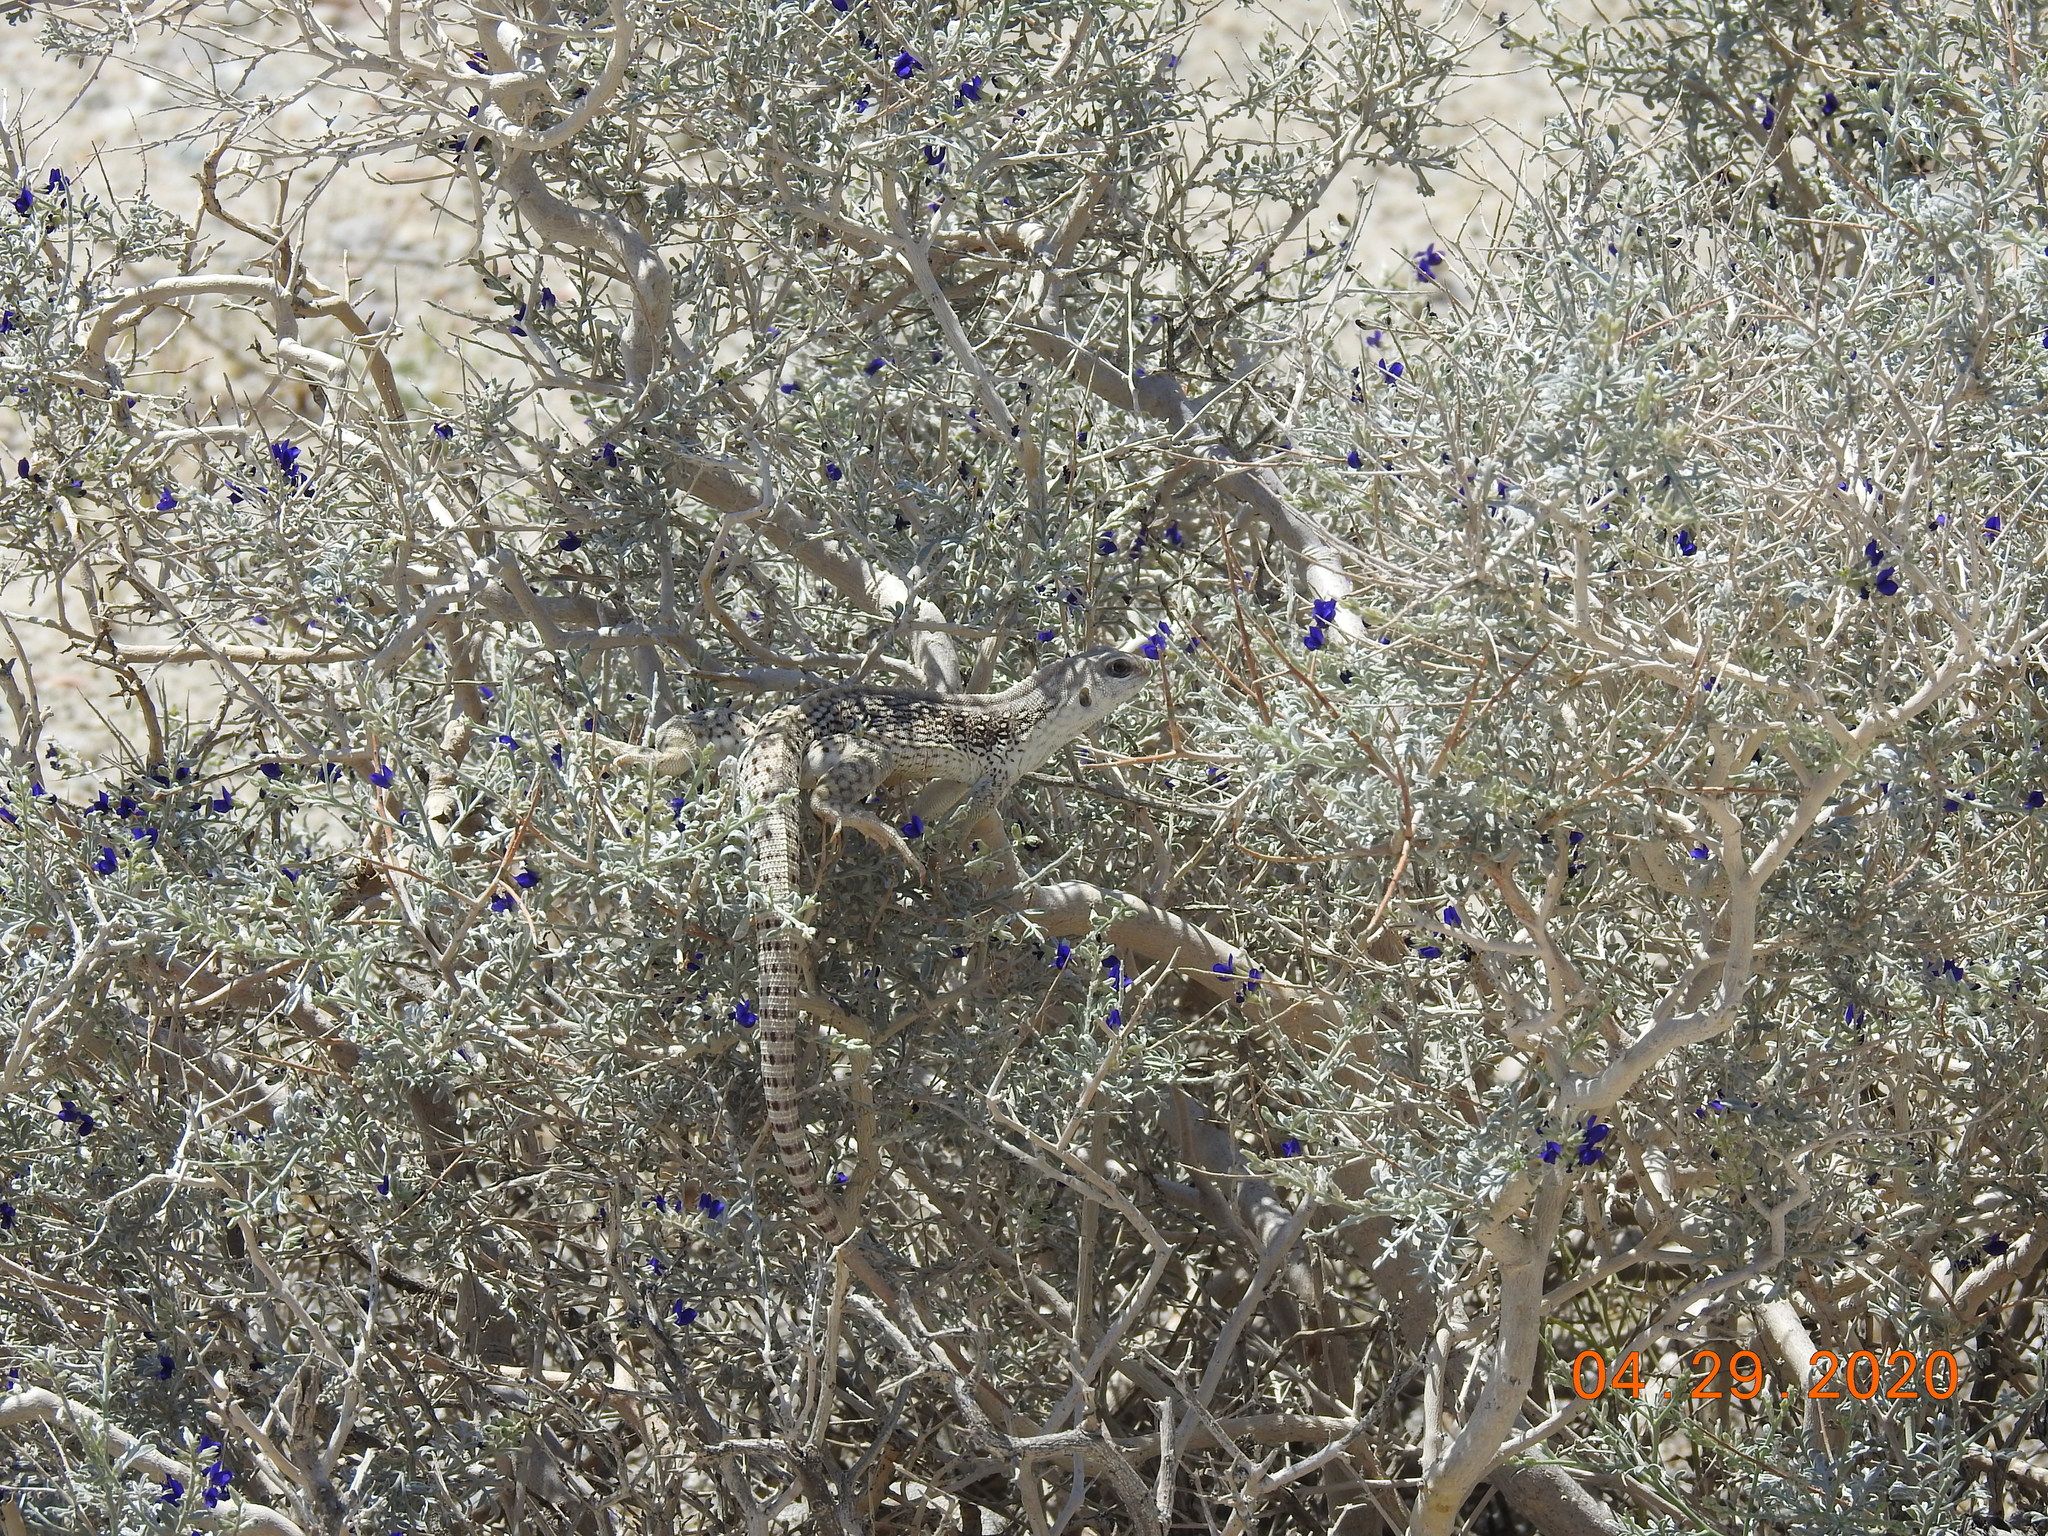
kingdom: Animalia
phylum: Chordata
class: Squamata
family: Iguanidae
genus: Dipsosaurus
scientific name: Dipsosaurus dorsalis
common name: Desert iguana
